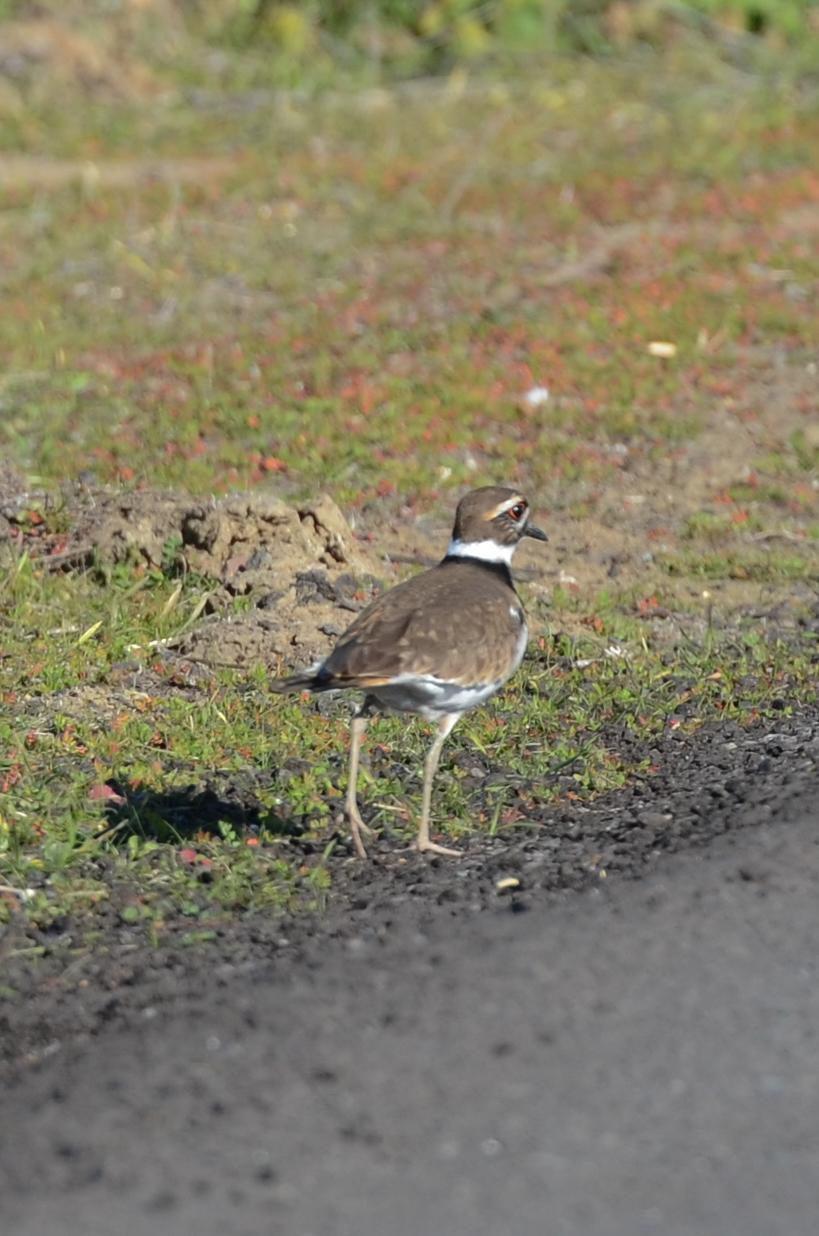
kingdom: Animalia
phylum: Chordata
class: Aves
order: Charadriiformes
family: Charadriidae
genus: Charadrius
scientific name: Charadrius vociferus
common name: Killdeer
